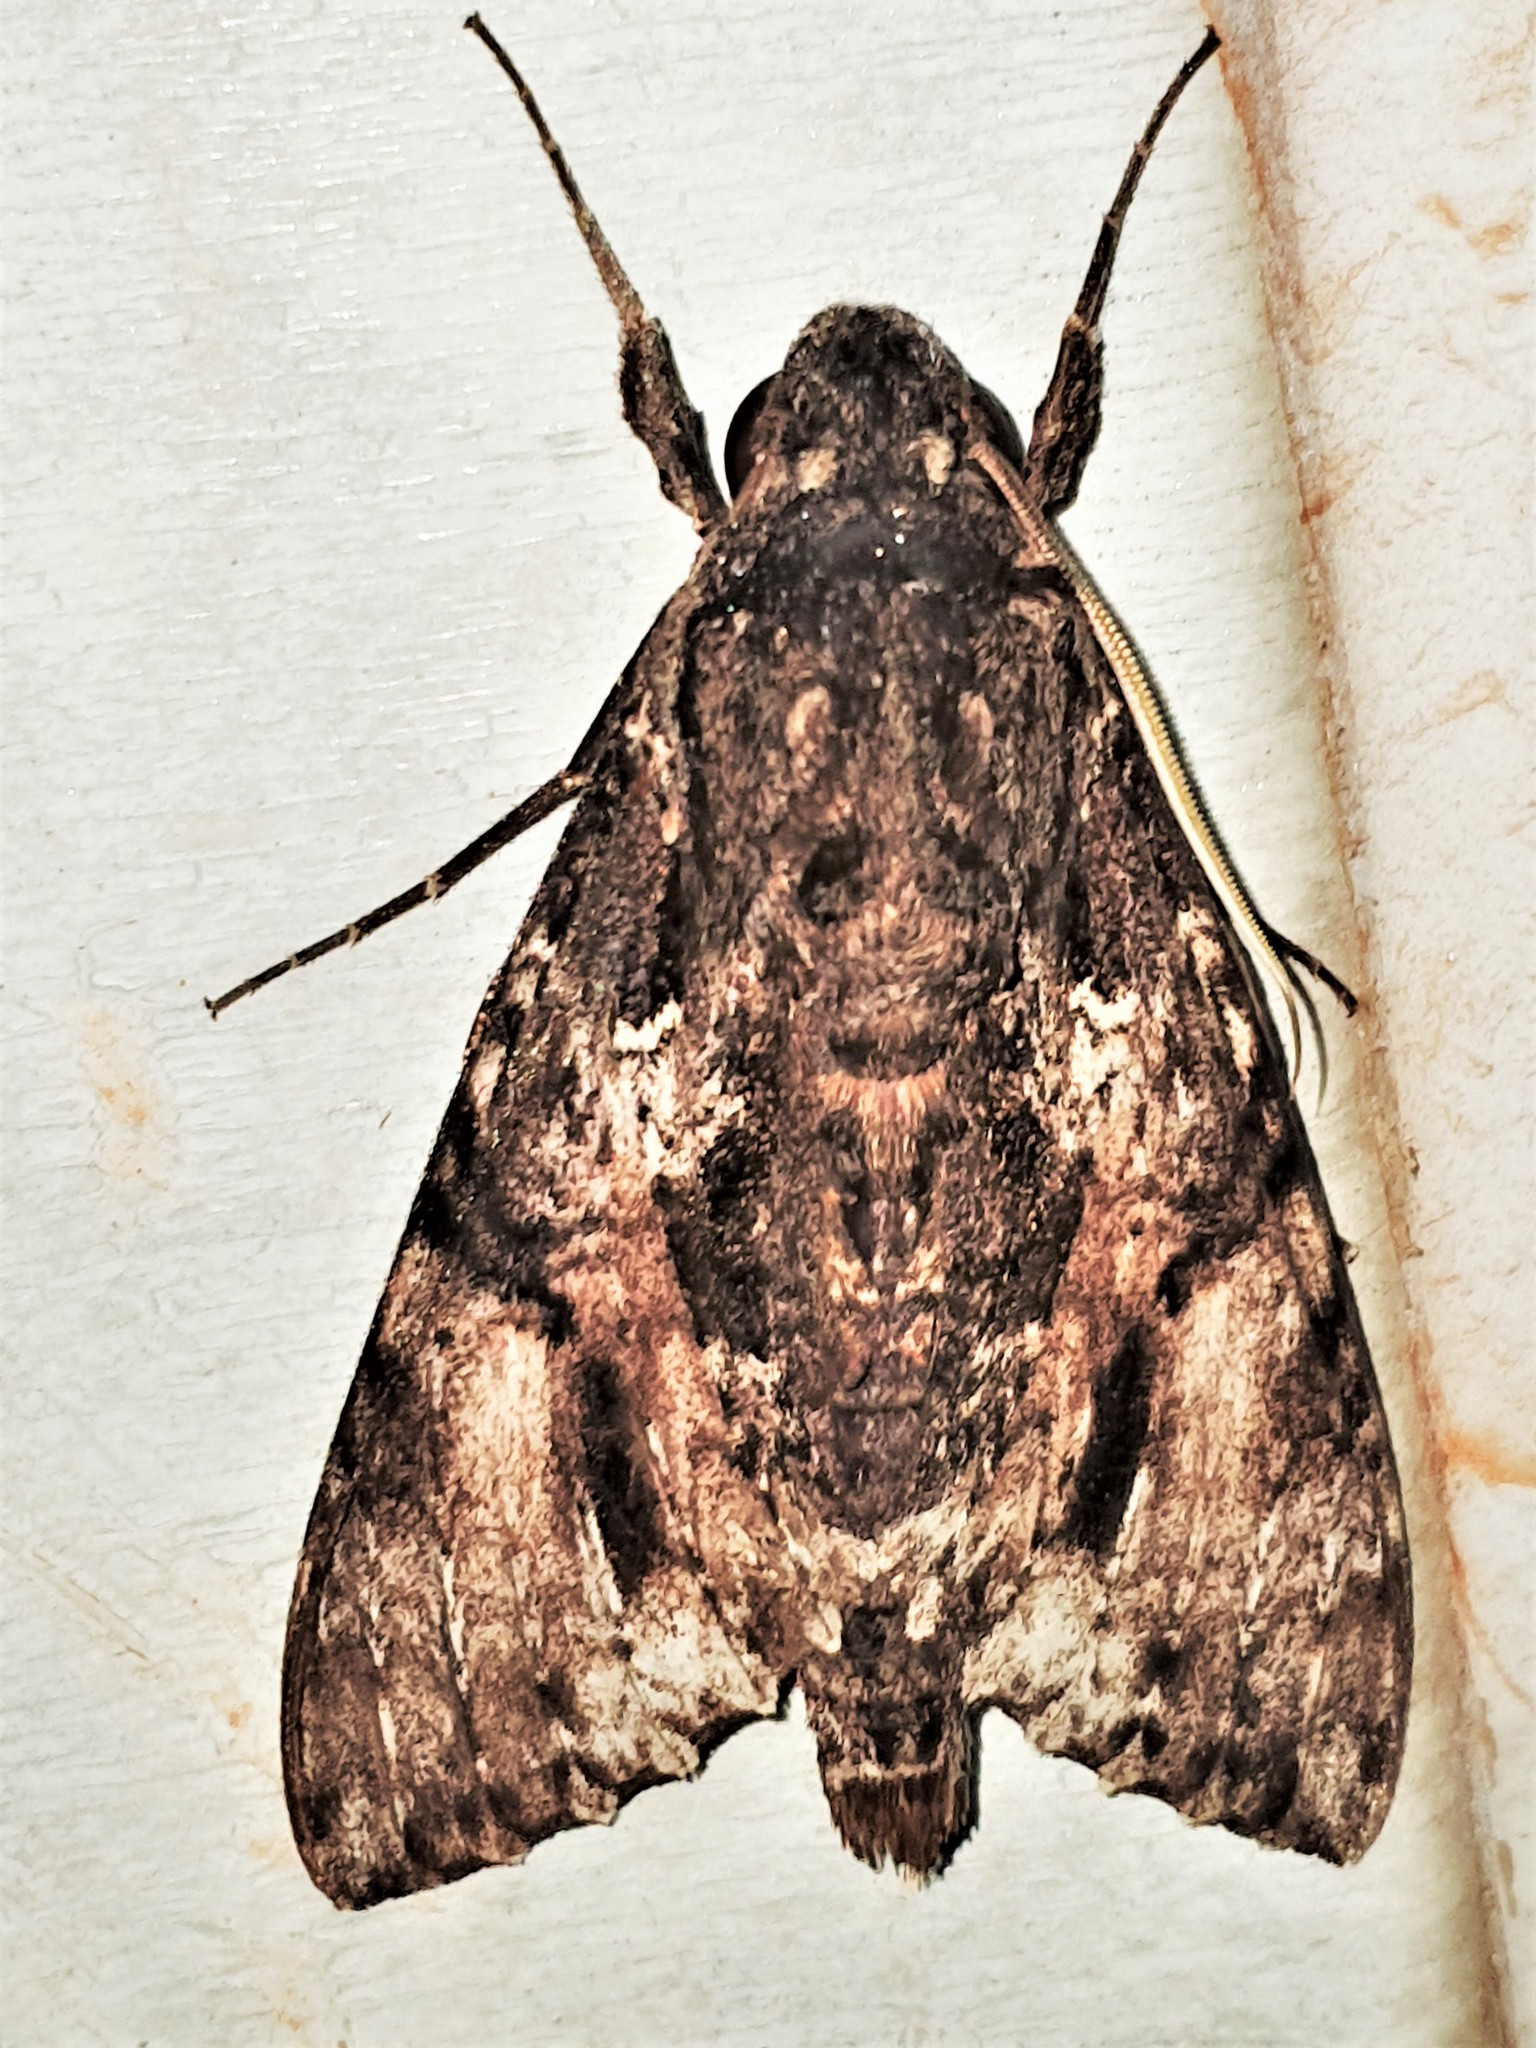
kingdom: Animalia
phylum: Arthropoda
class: Insecta
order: Lepidoptera
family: Sphingidae
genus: Isognathus
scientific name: Isognathus occidentalis
